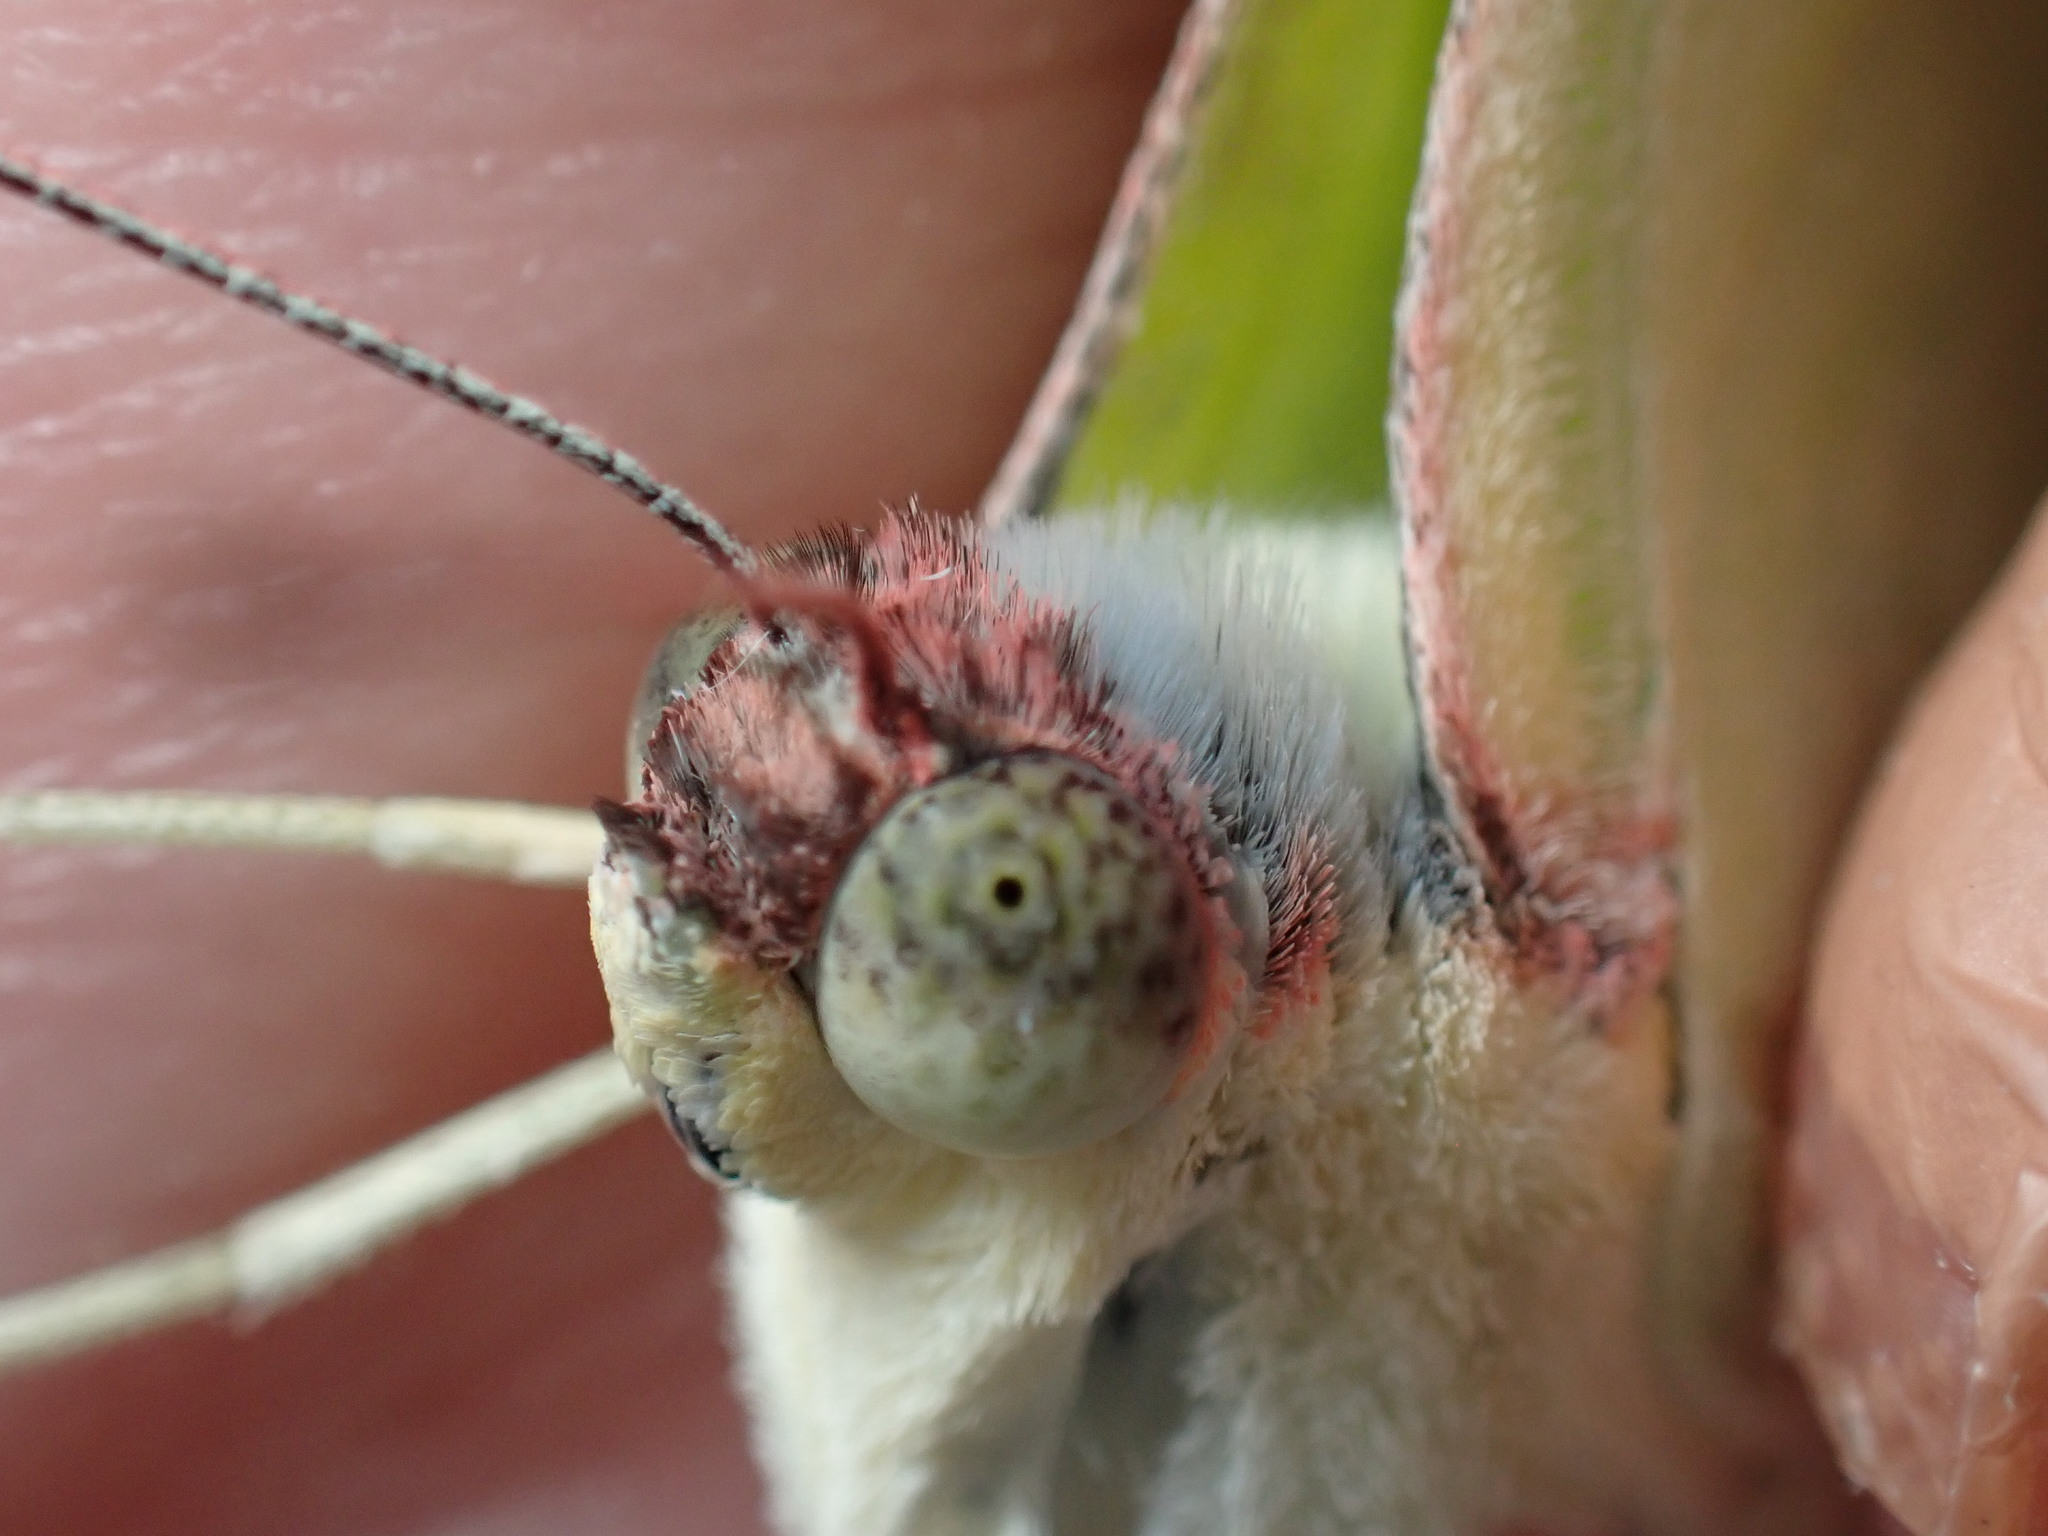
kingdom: Animalia
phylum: Arthropoda
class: Insecta
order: Lepidoptera
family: Pieridae
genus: Catopsilia
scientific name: Catopsilia pomona
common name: Common emigrant
